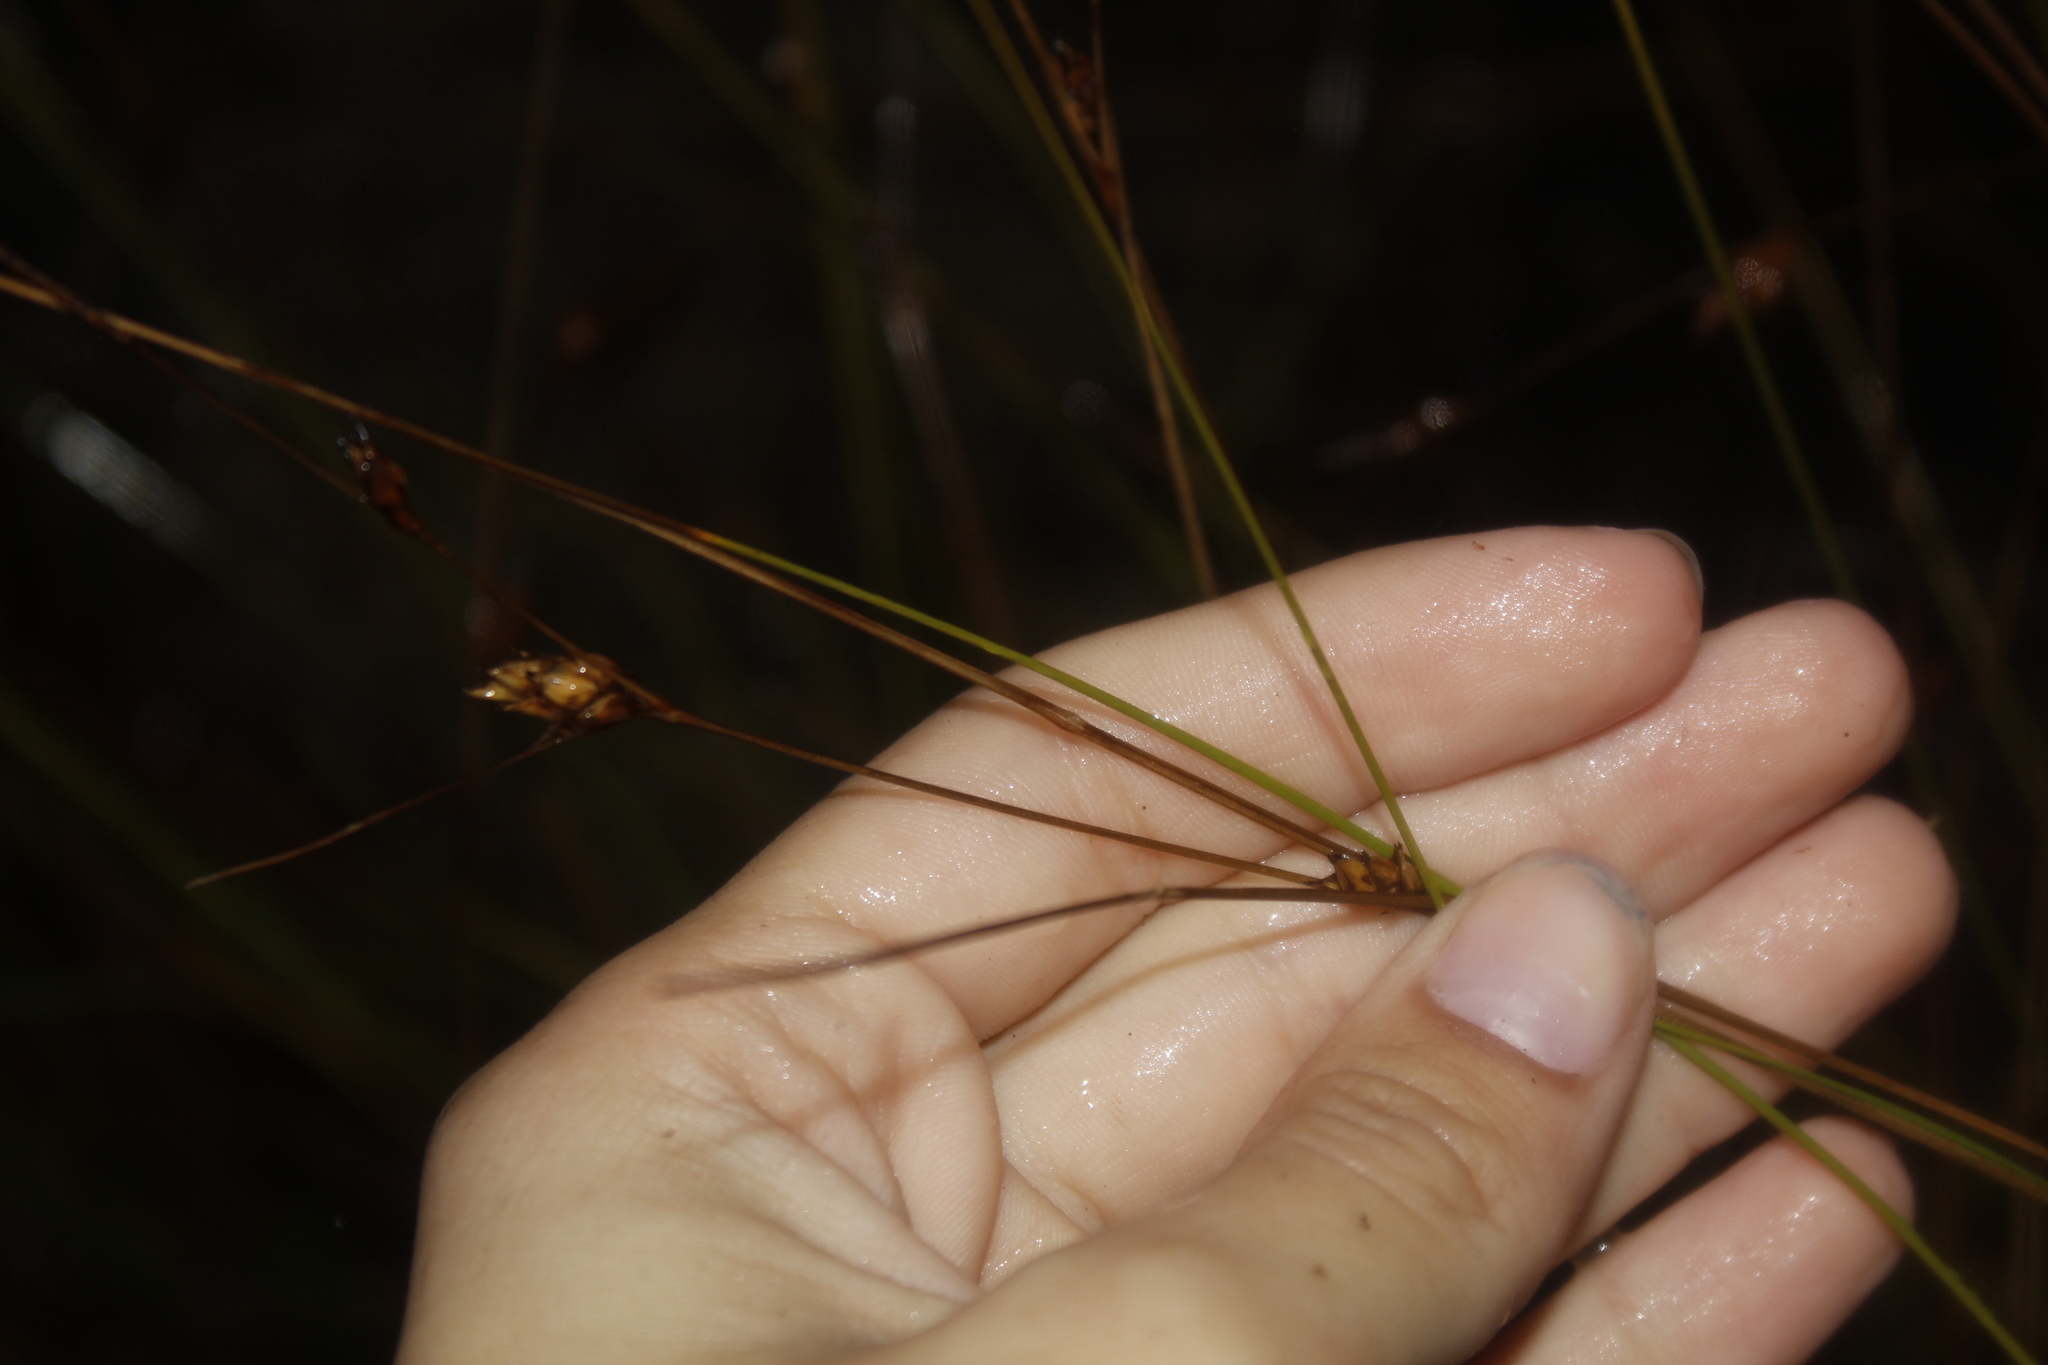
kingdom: Plantae
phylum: Tracheophyta
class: Liliopsida
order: Poales
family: Cyperaceae
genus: Carex
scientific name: Carex oligosperma
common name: Few-seed sedge
